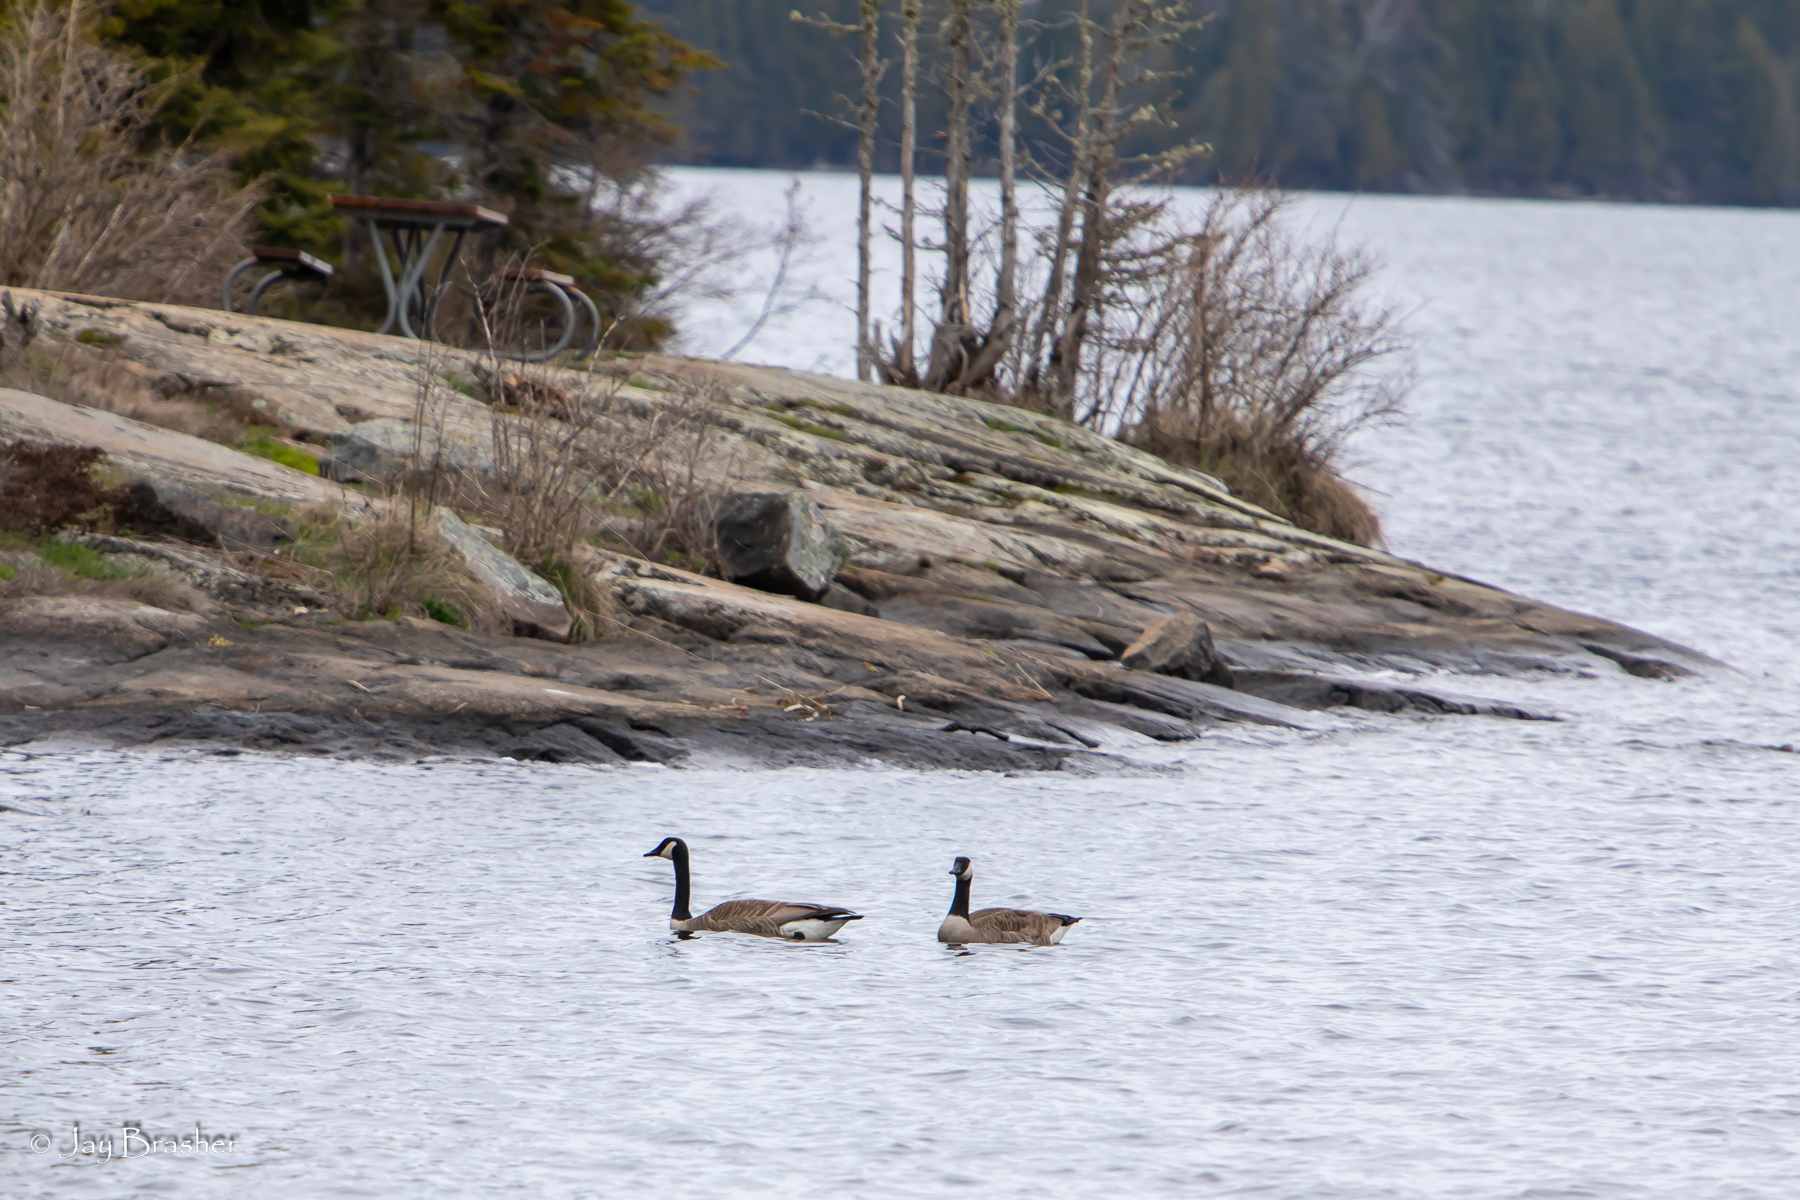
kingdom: Animalia
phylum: Chordata
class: Aves
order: Anseriformes
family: Anatidae
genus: Branta
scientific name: Branta canadensis
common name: Canada goose
